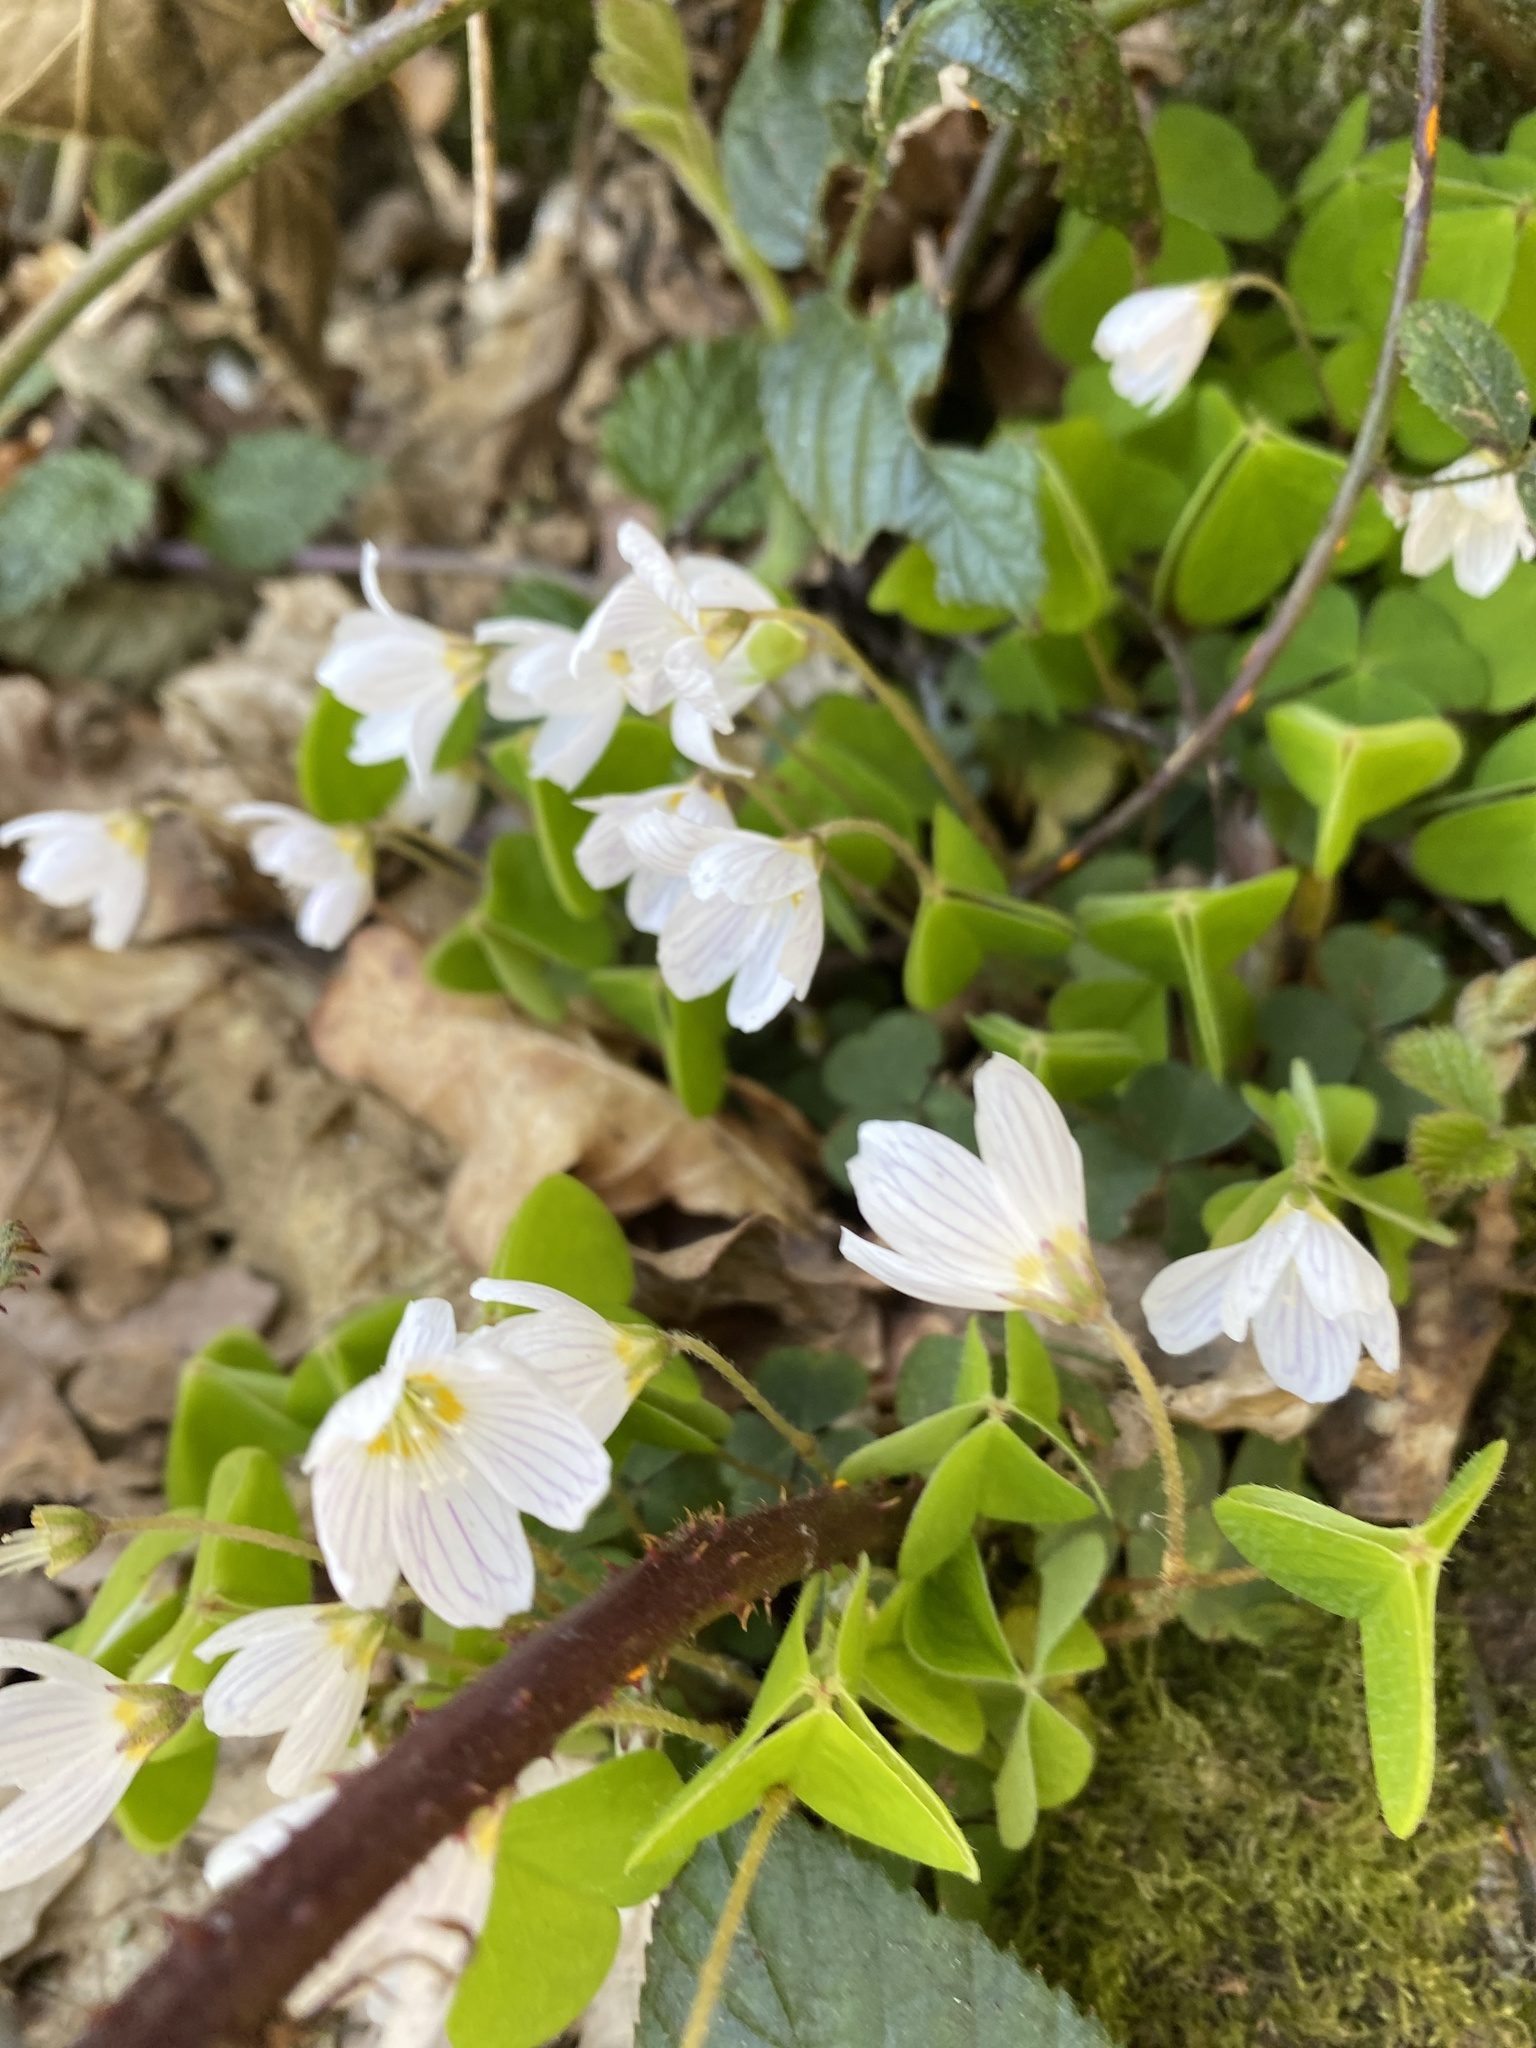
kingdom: Plantae
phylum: Tracheophyta
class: Magnoliopsida
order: Oxalidales
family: Oxalidaceae
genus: Oxalis
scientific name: Oxalis acetosella
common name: Wood-sorrel
